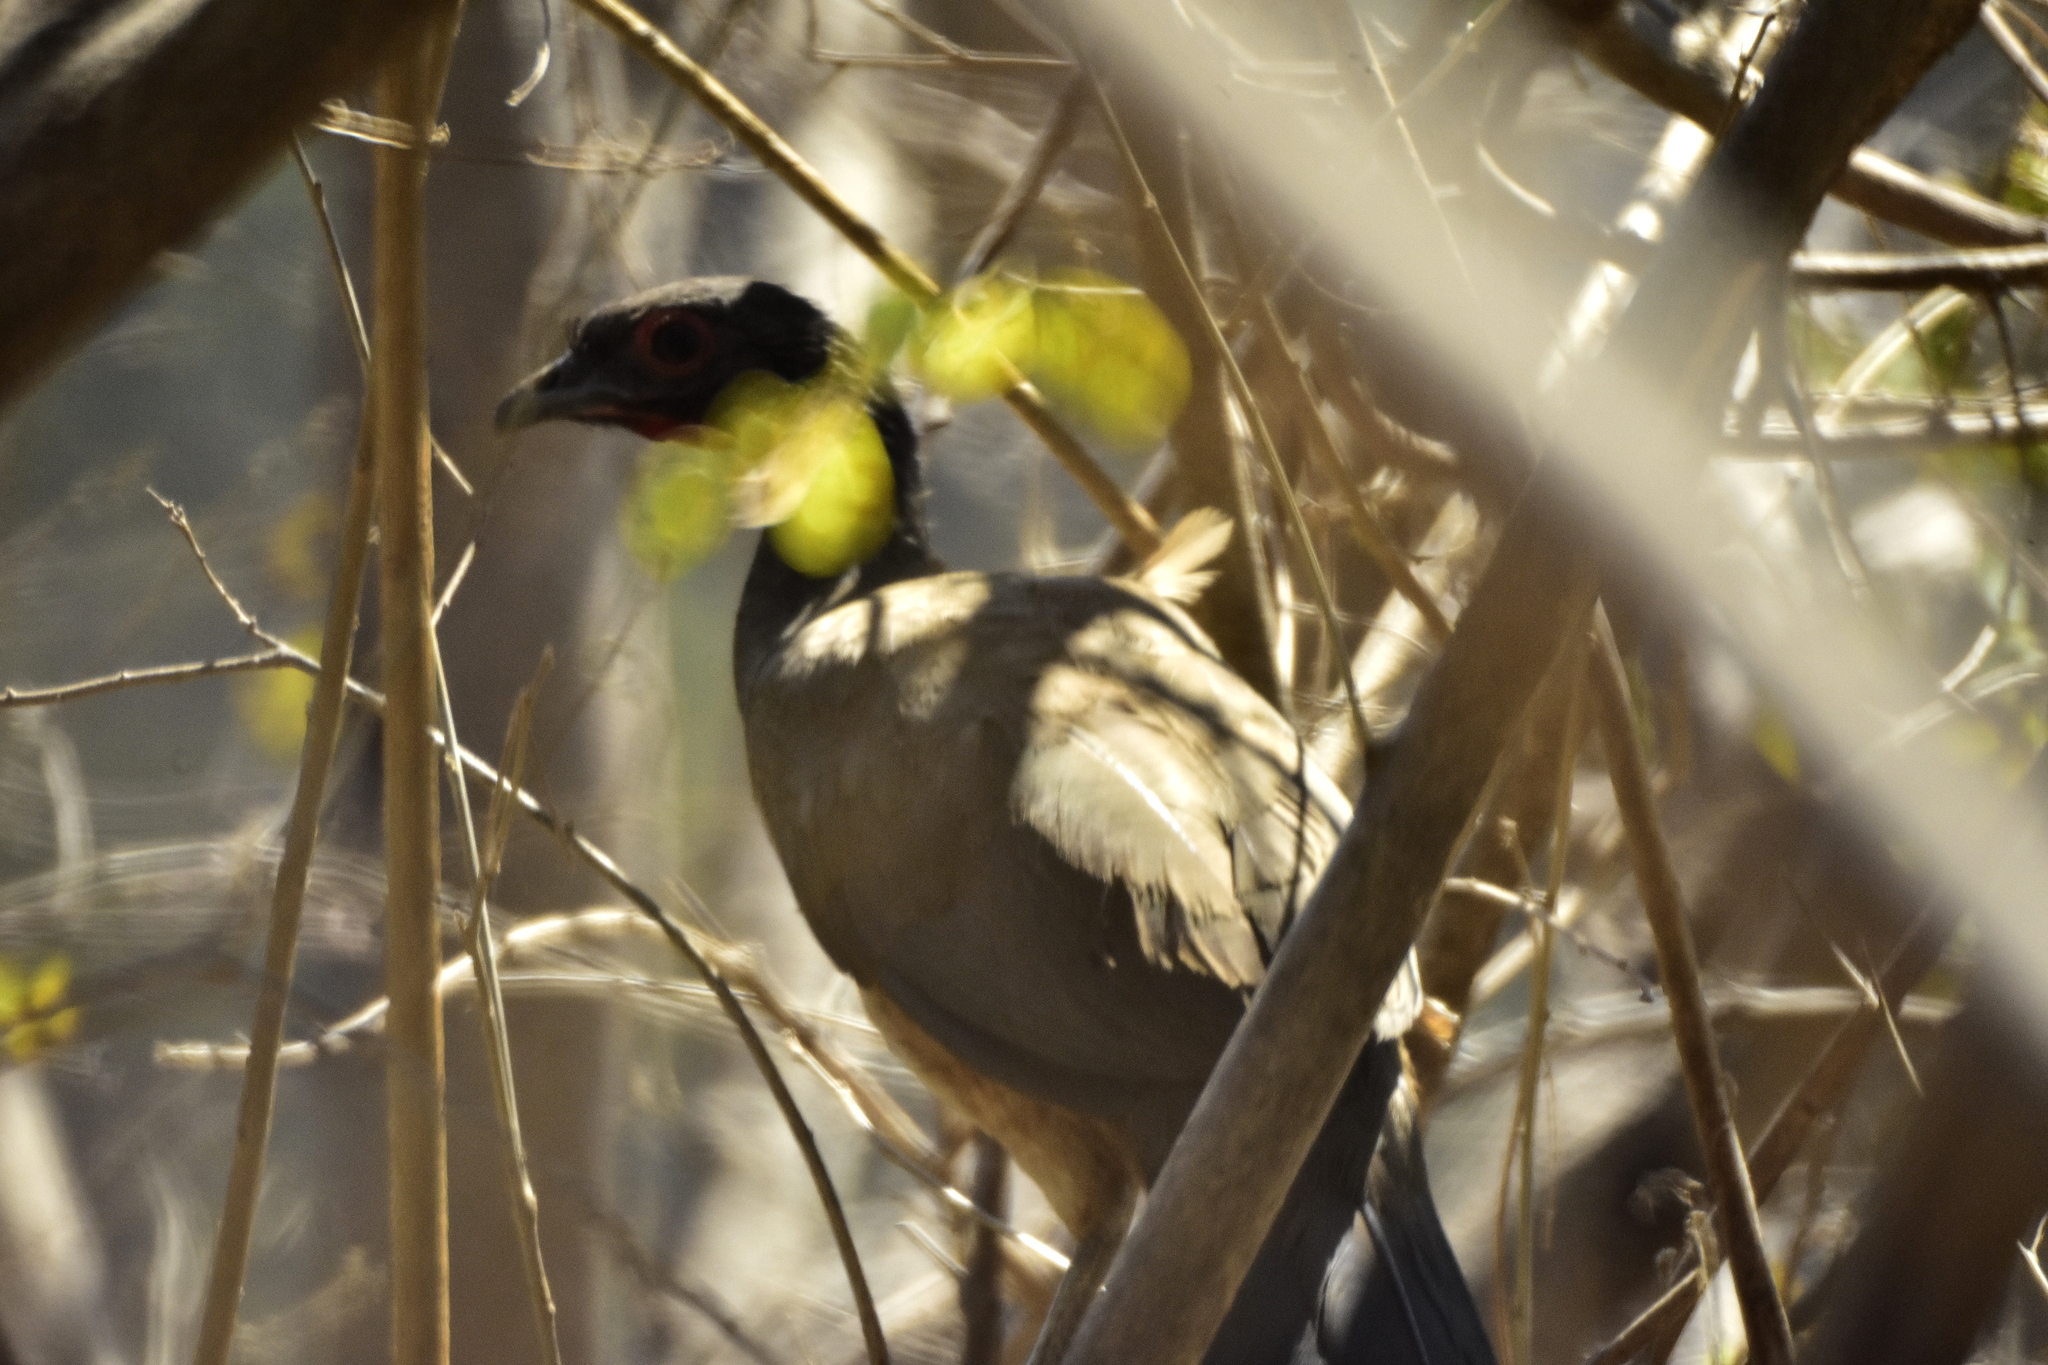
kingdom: Animalia
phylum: Chordata
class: Aves
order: Galliformes
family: Cracidae
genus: Ortalis
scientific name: Ortalis poliocephala
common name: West mexican chachalaca
